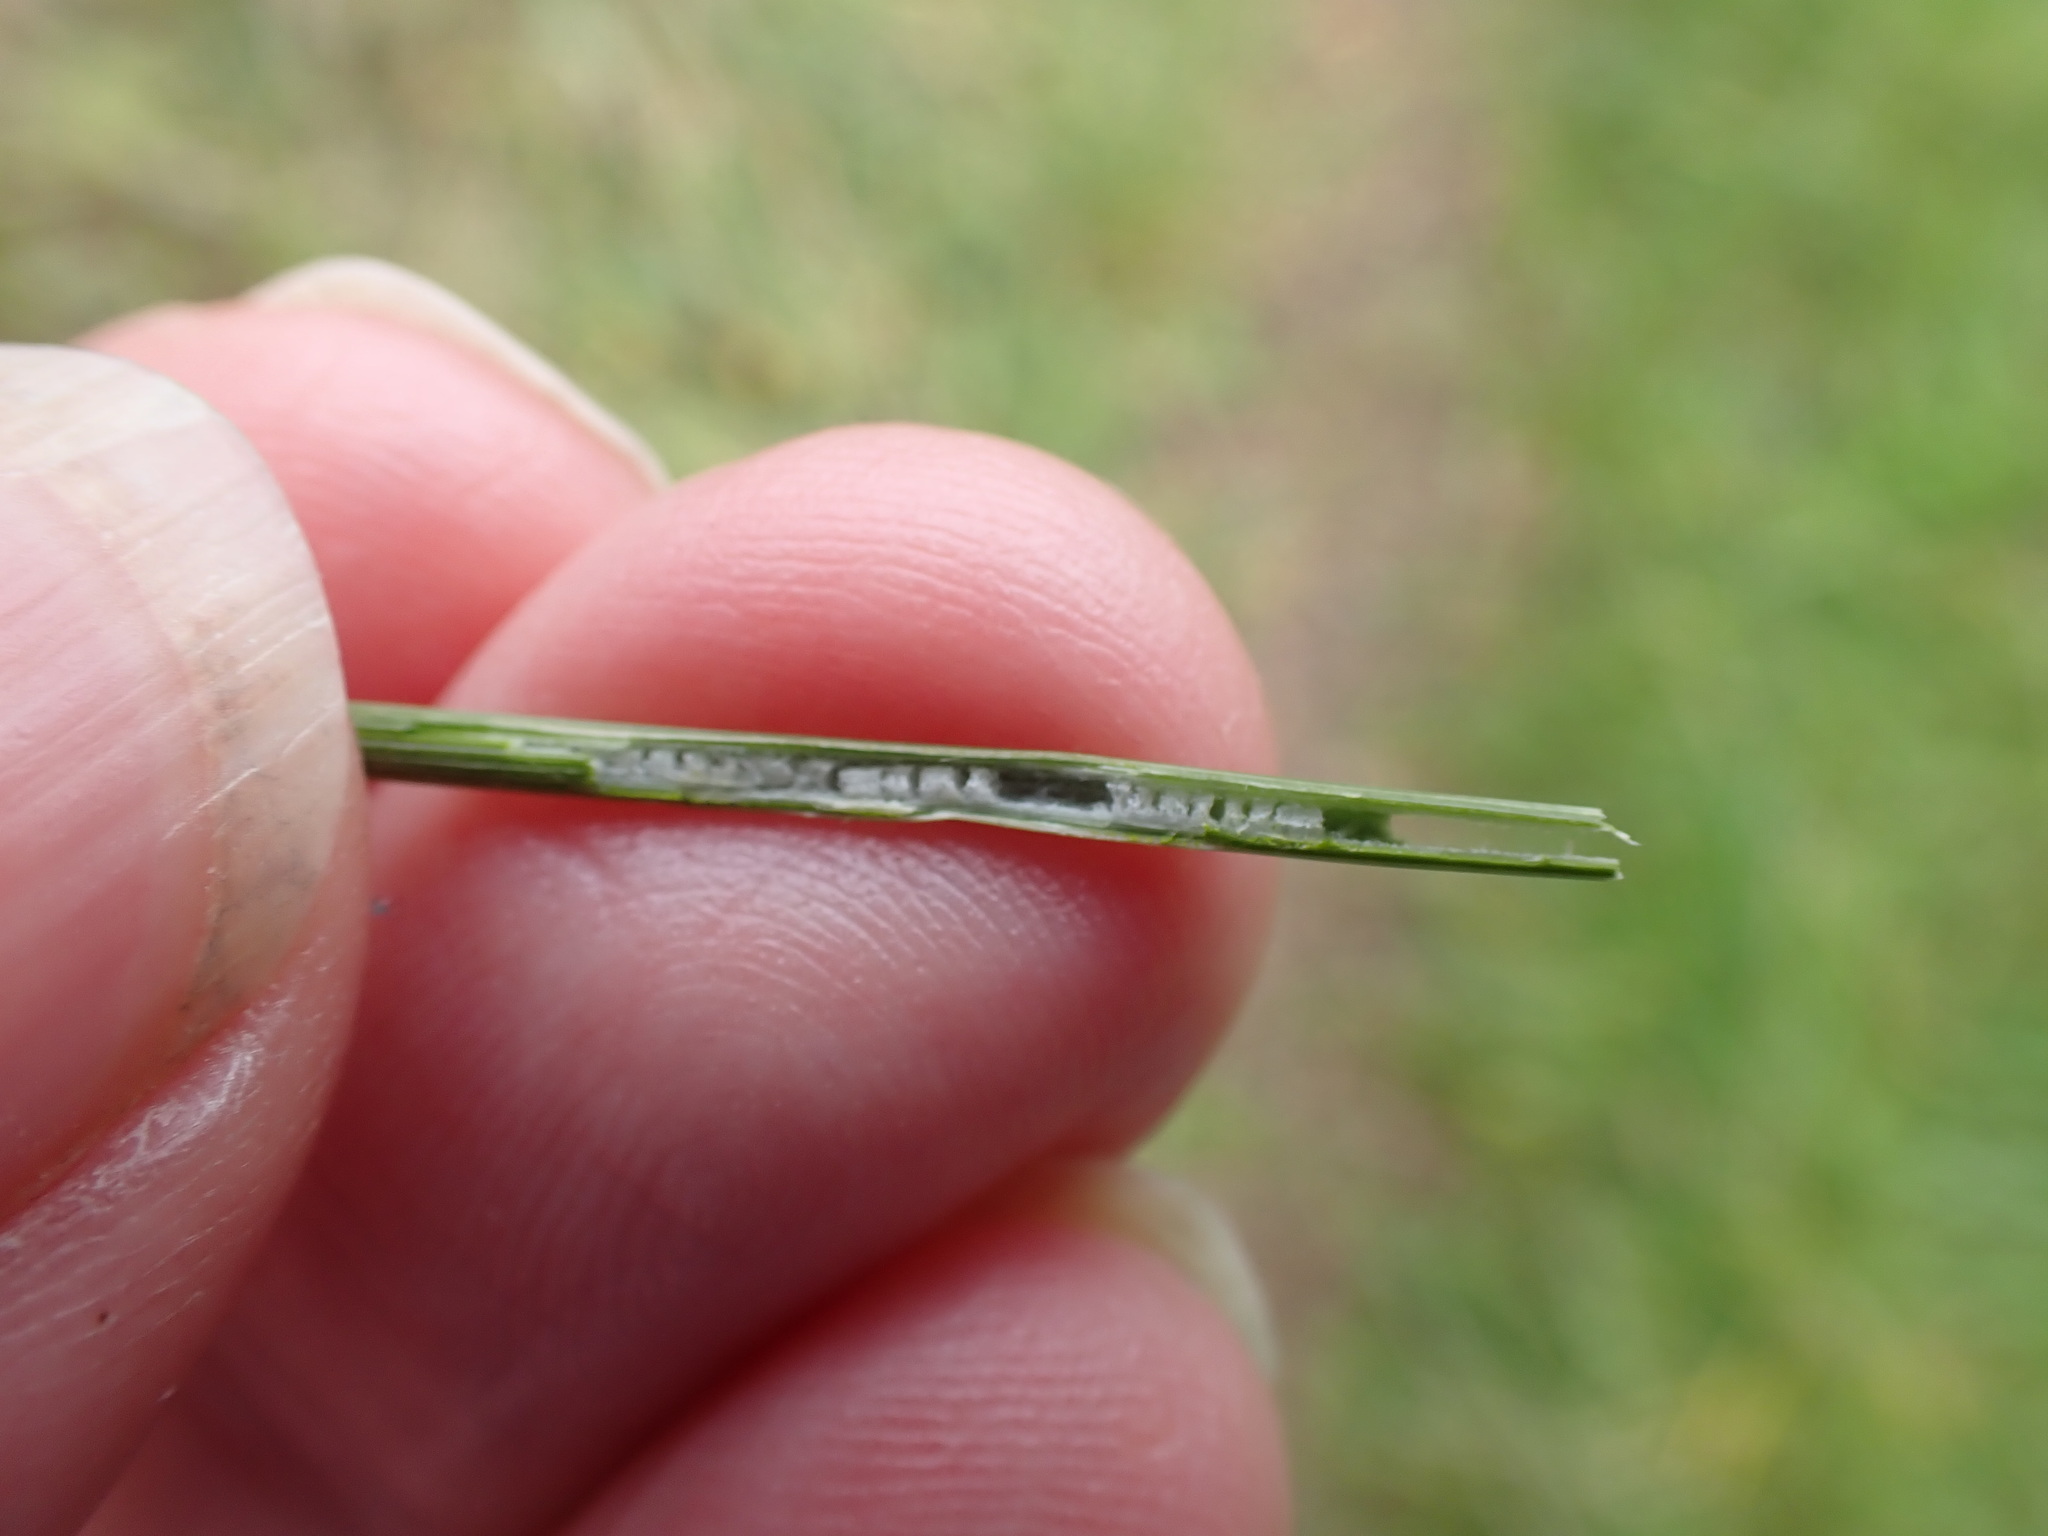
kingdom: Plantae
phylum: Tracheophyta
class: Liliopsida
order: Poales
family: Juncaceae
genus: Juncus
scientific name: Juncus inflexus
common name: Hard rush
